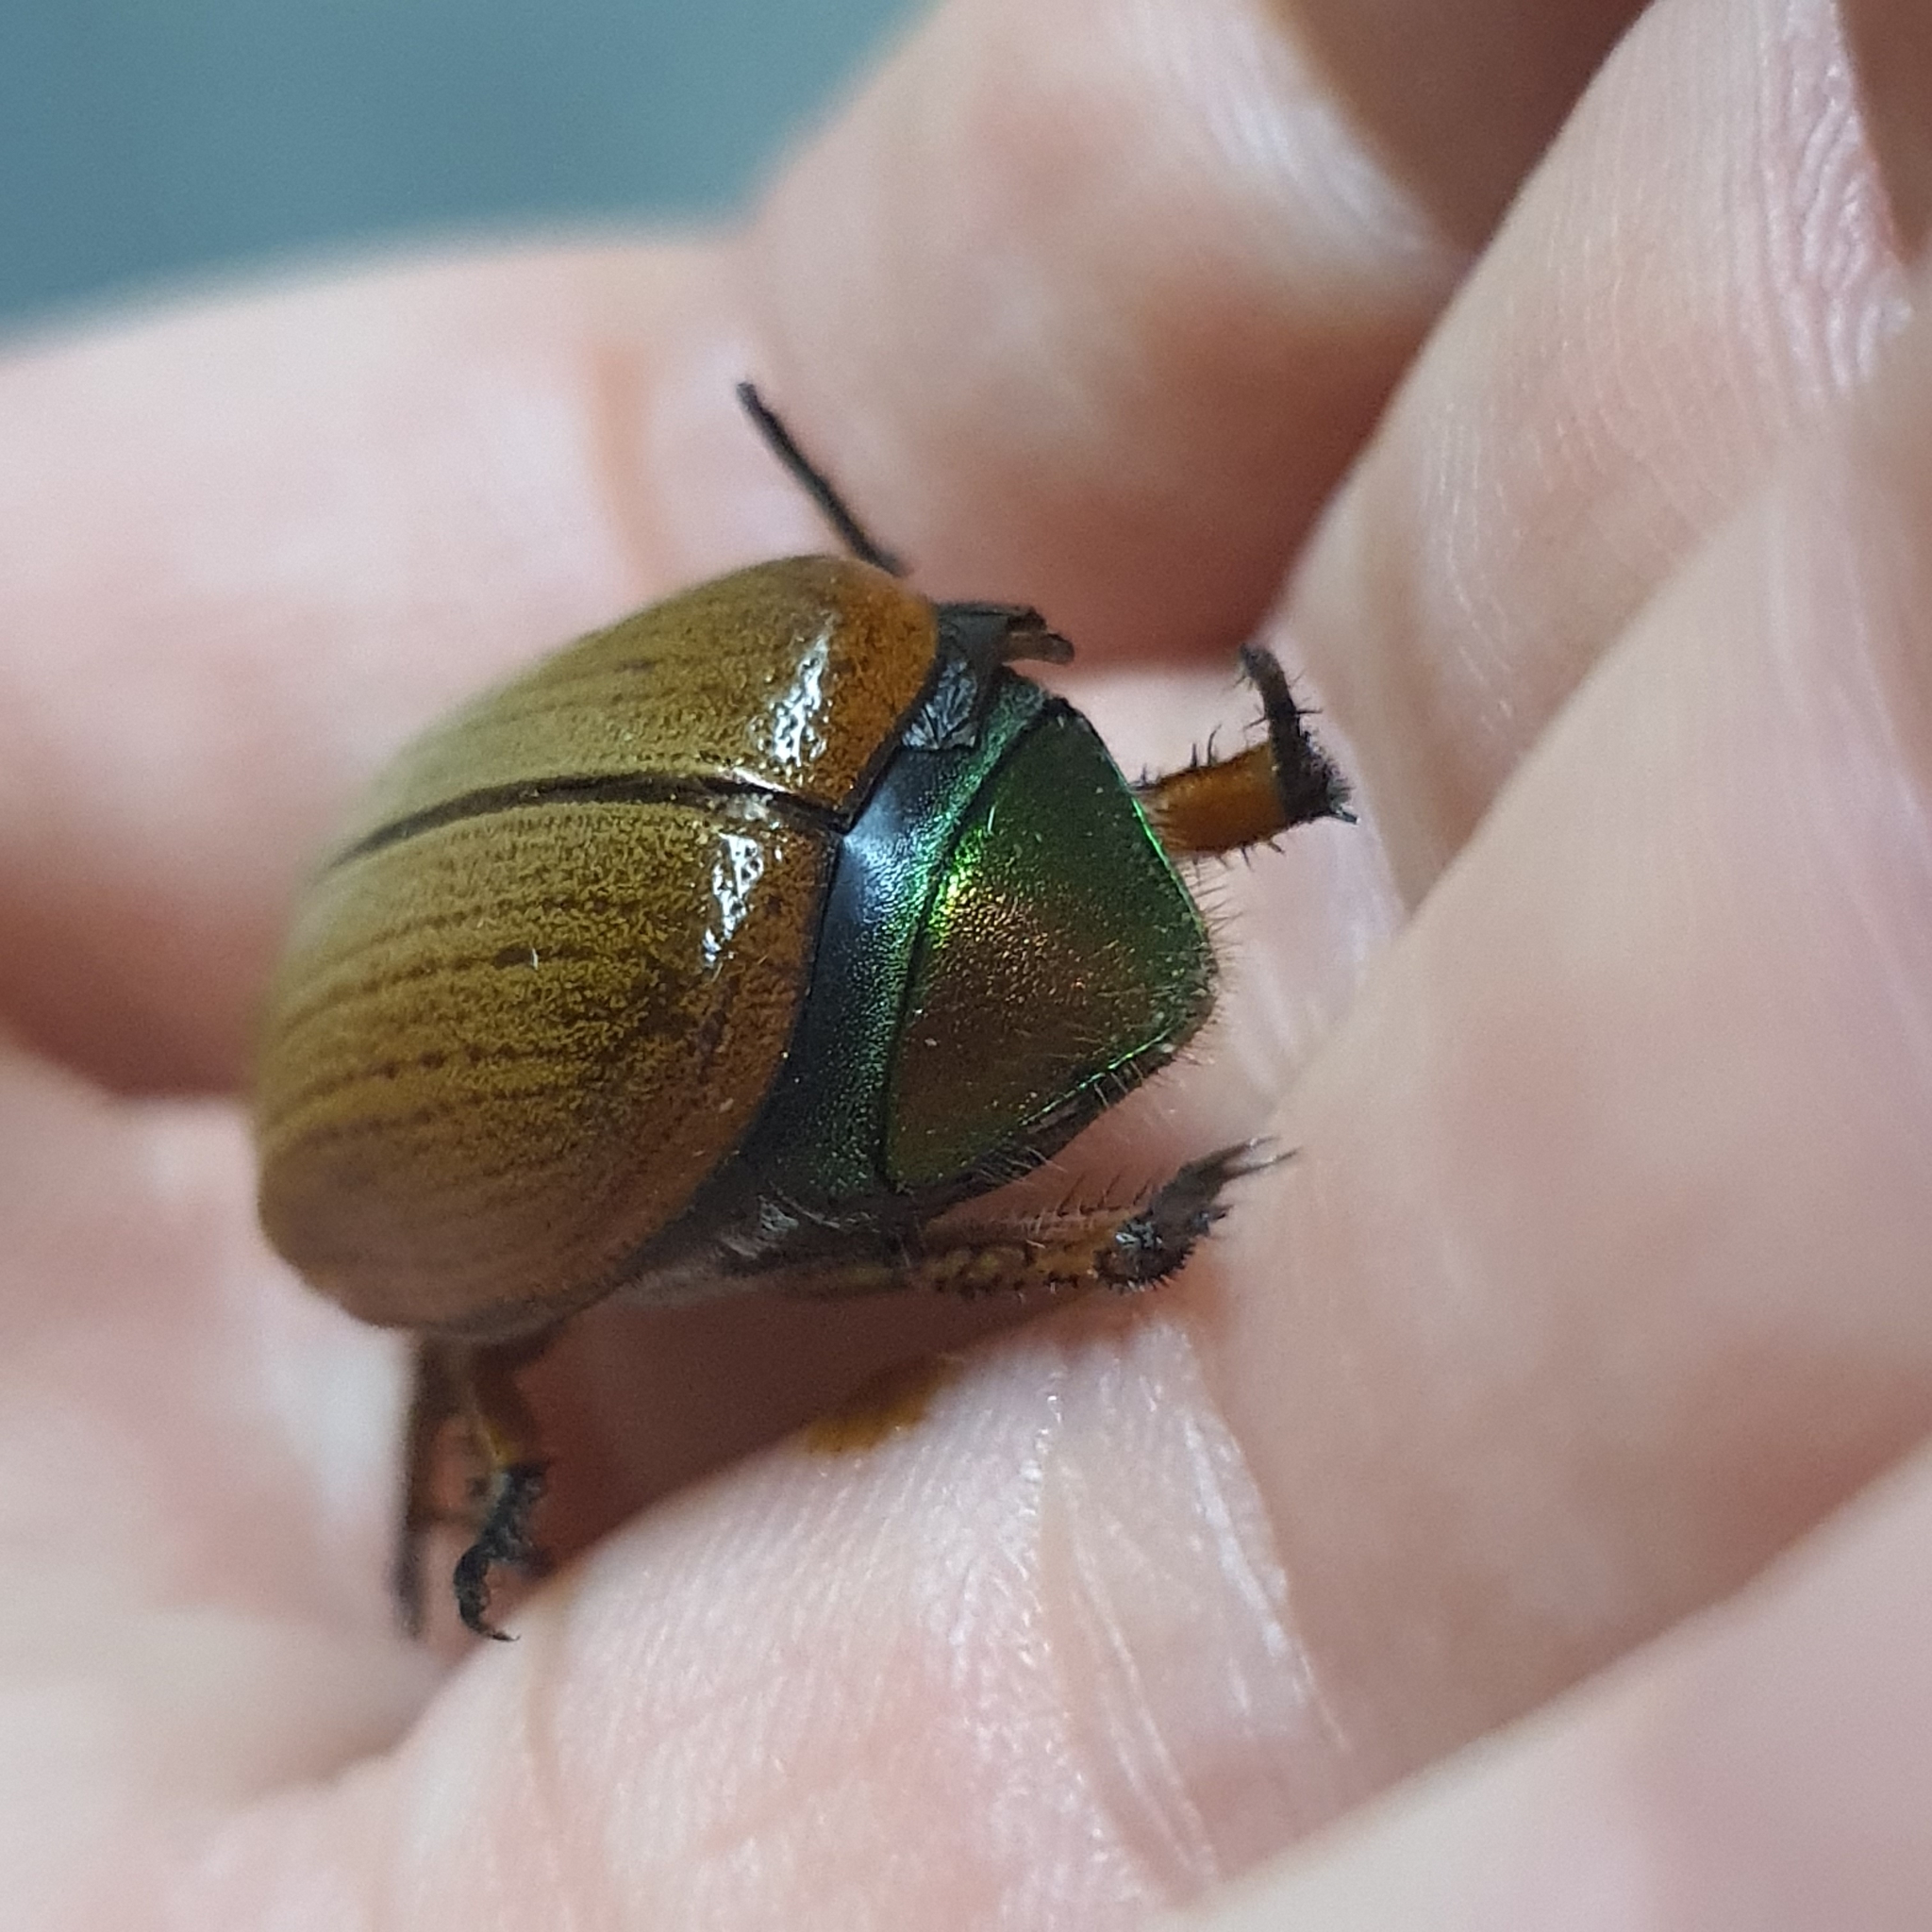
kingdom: Animalia
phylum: Arthropoda
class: Insecta
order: Coleoptera
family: Scarabaeidae
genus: Anoplognathus
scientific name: Anoplognathus brunnipennis
